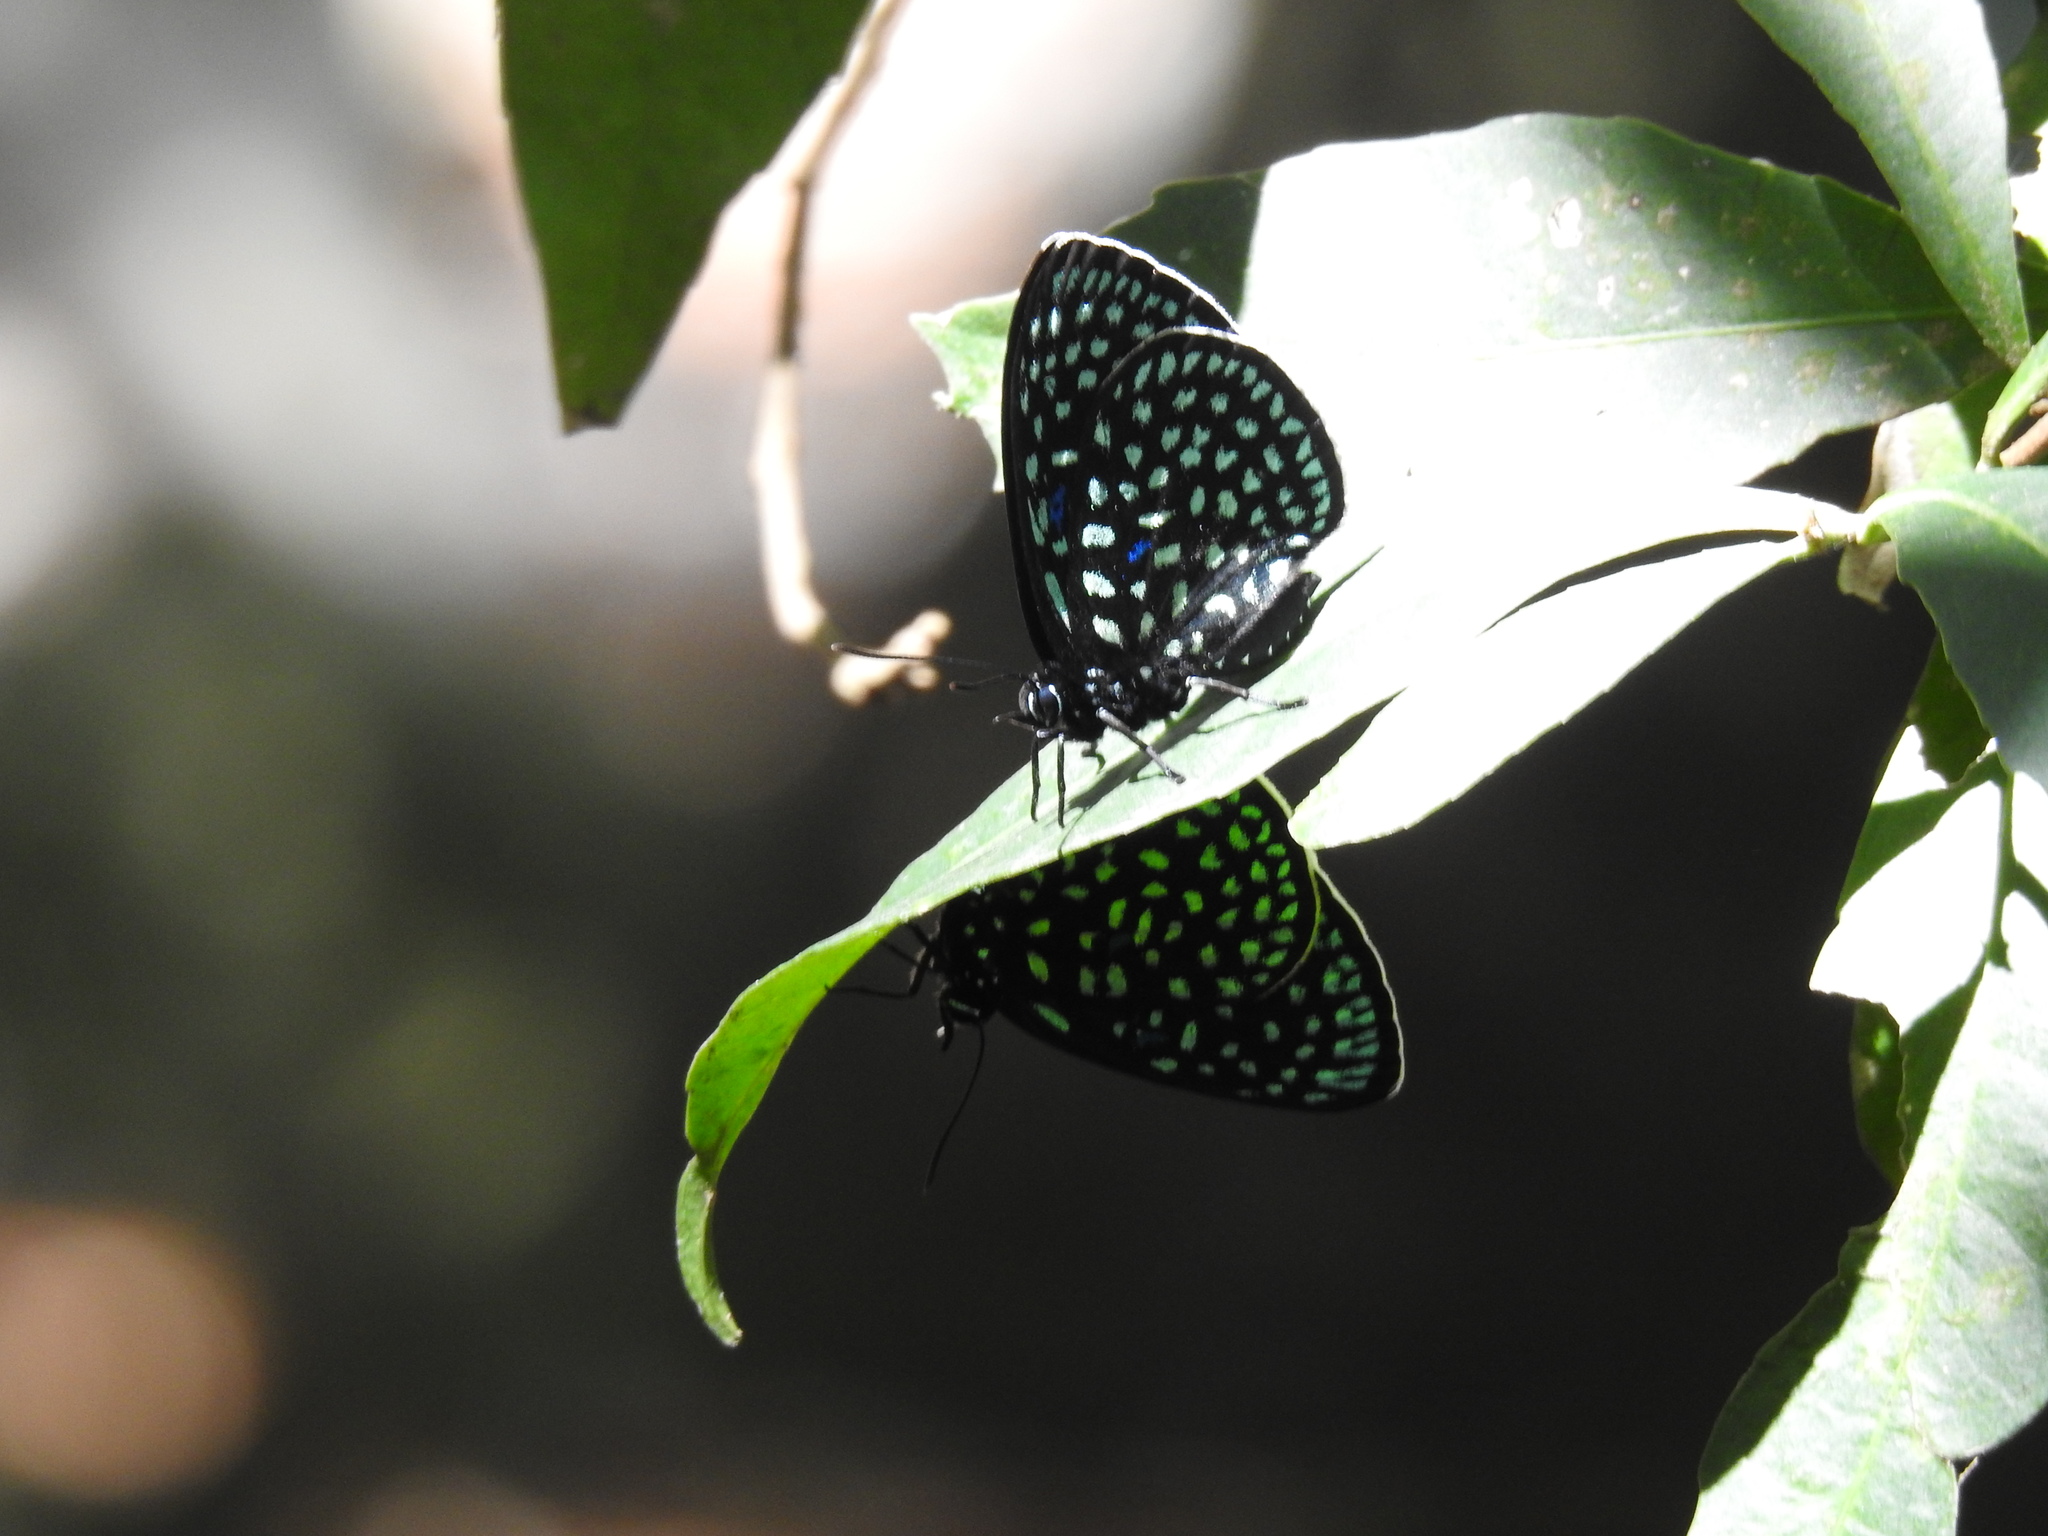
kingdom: Animalia
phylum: Arthropoda
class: Insecta
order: Lepidoptera
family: Lycaenidae
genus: Eumaeus
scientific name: Eumaeus childrenae
